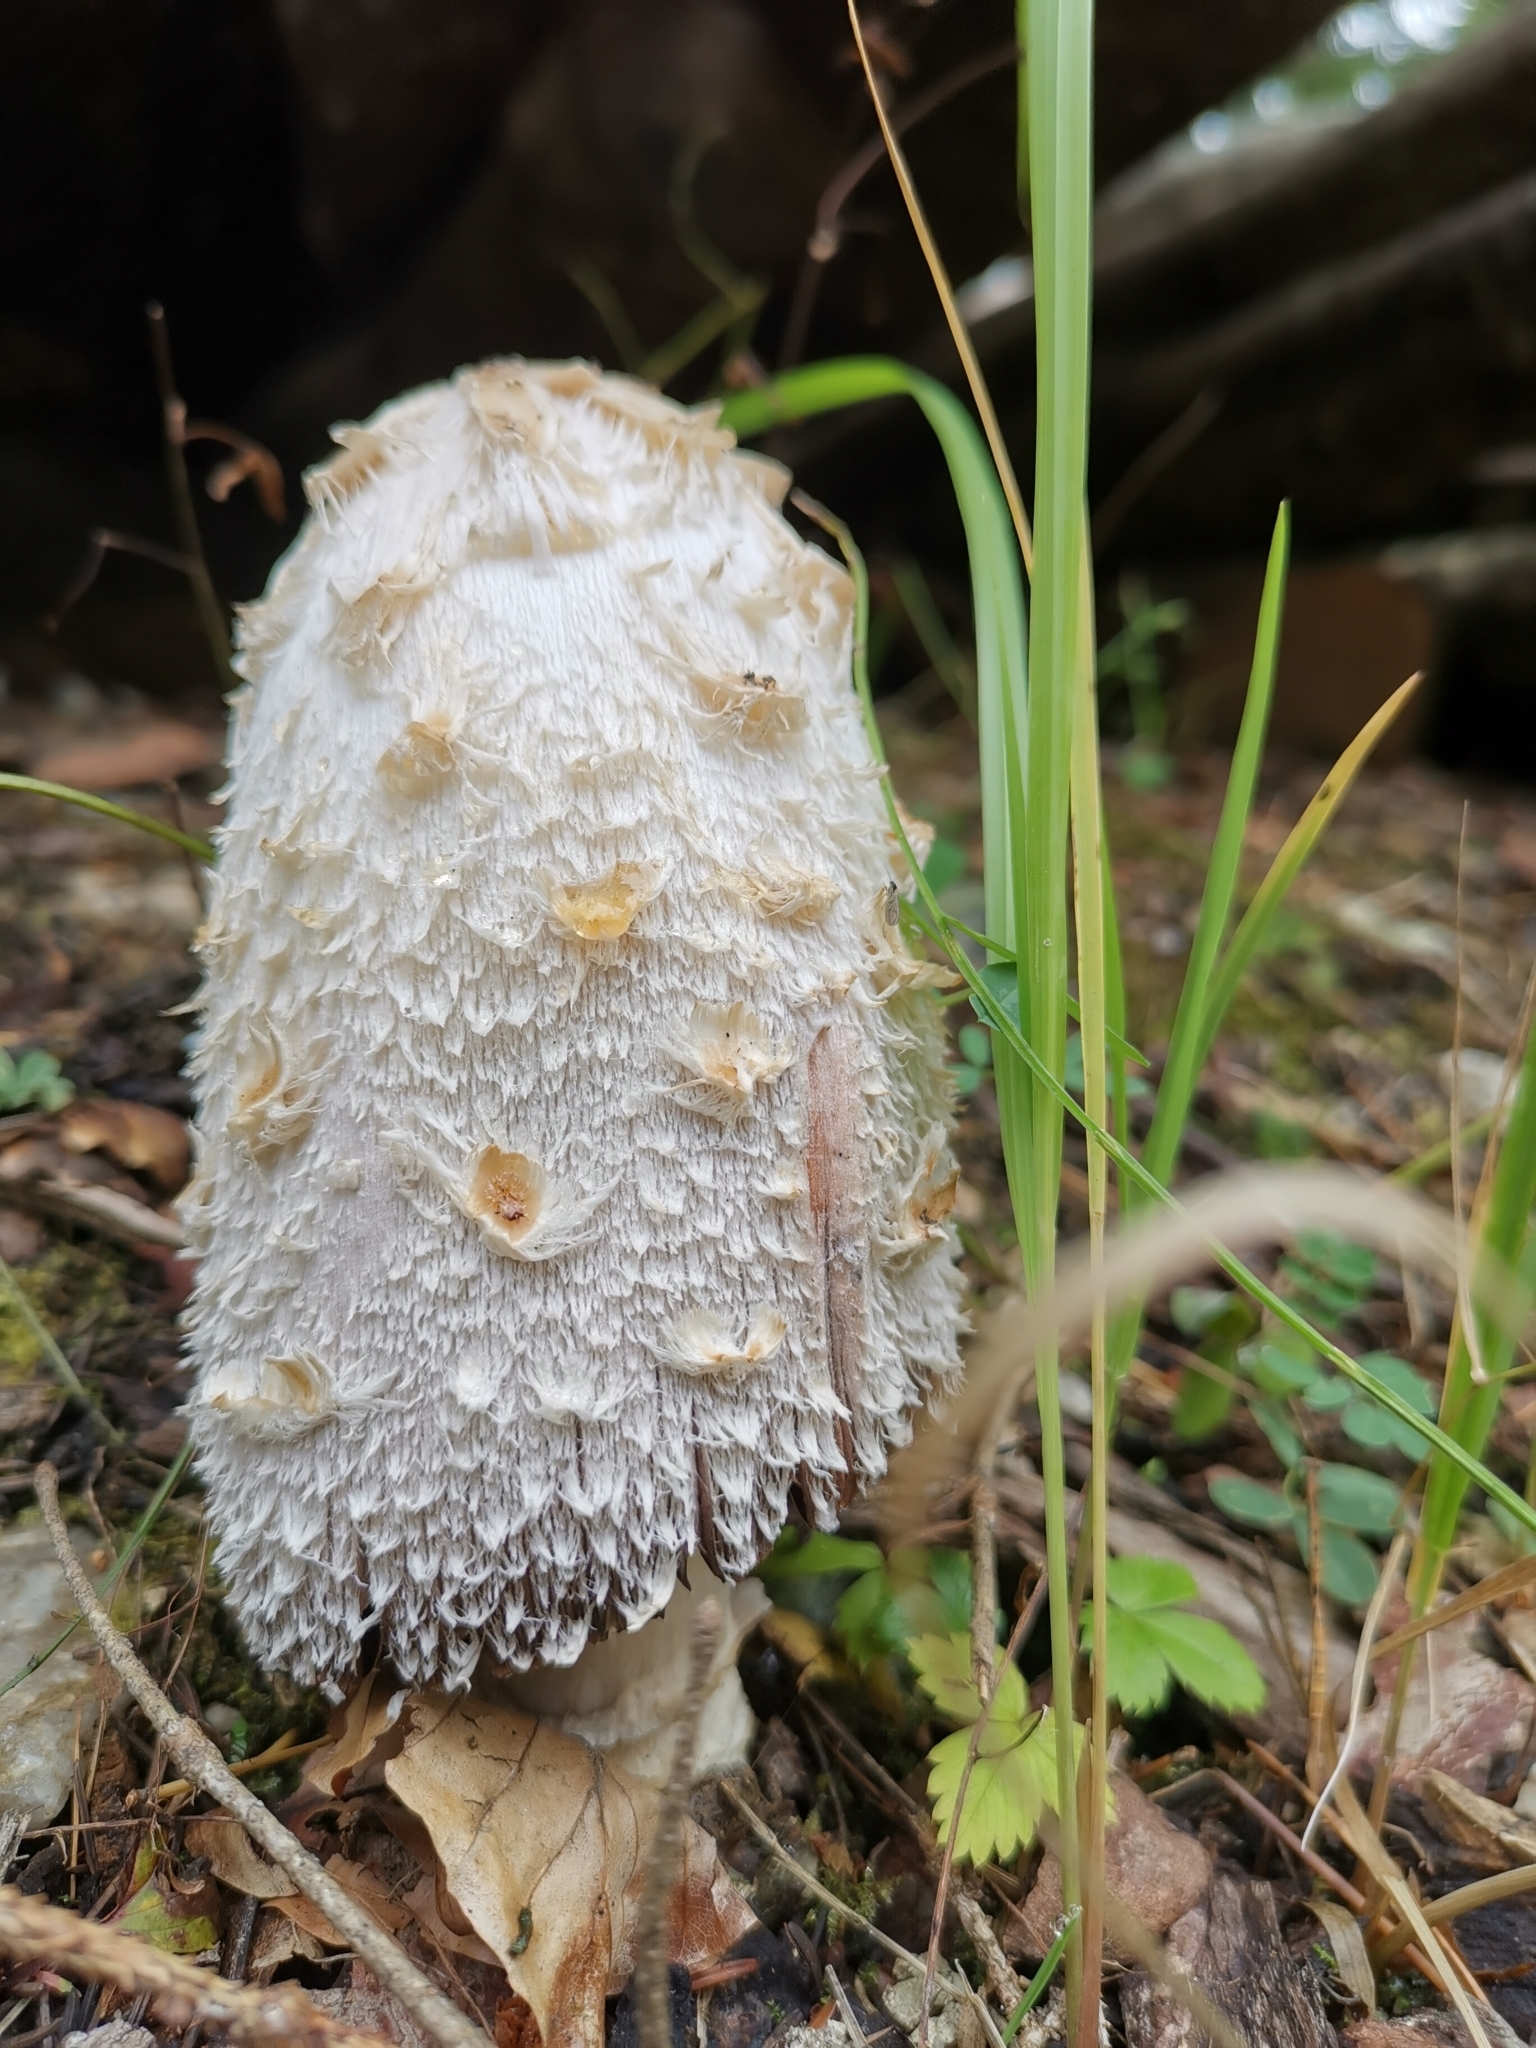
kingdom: Fungi
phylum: Basidiomycota
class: Agaricomycetes
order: Agaricales
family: Agaricaceae
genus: Coprinus
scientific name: Coprinus comatus
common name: Lawyer's wig
